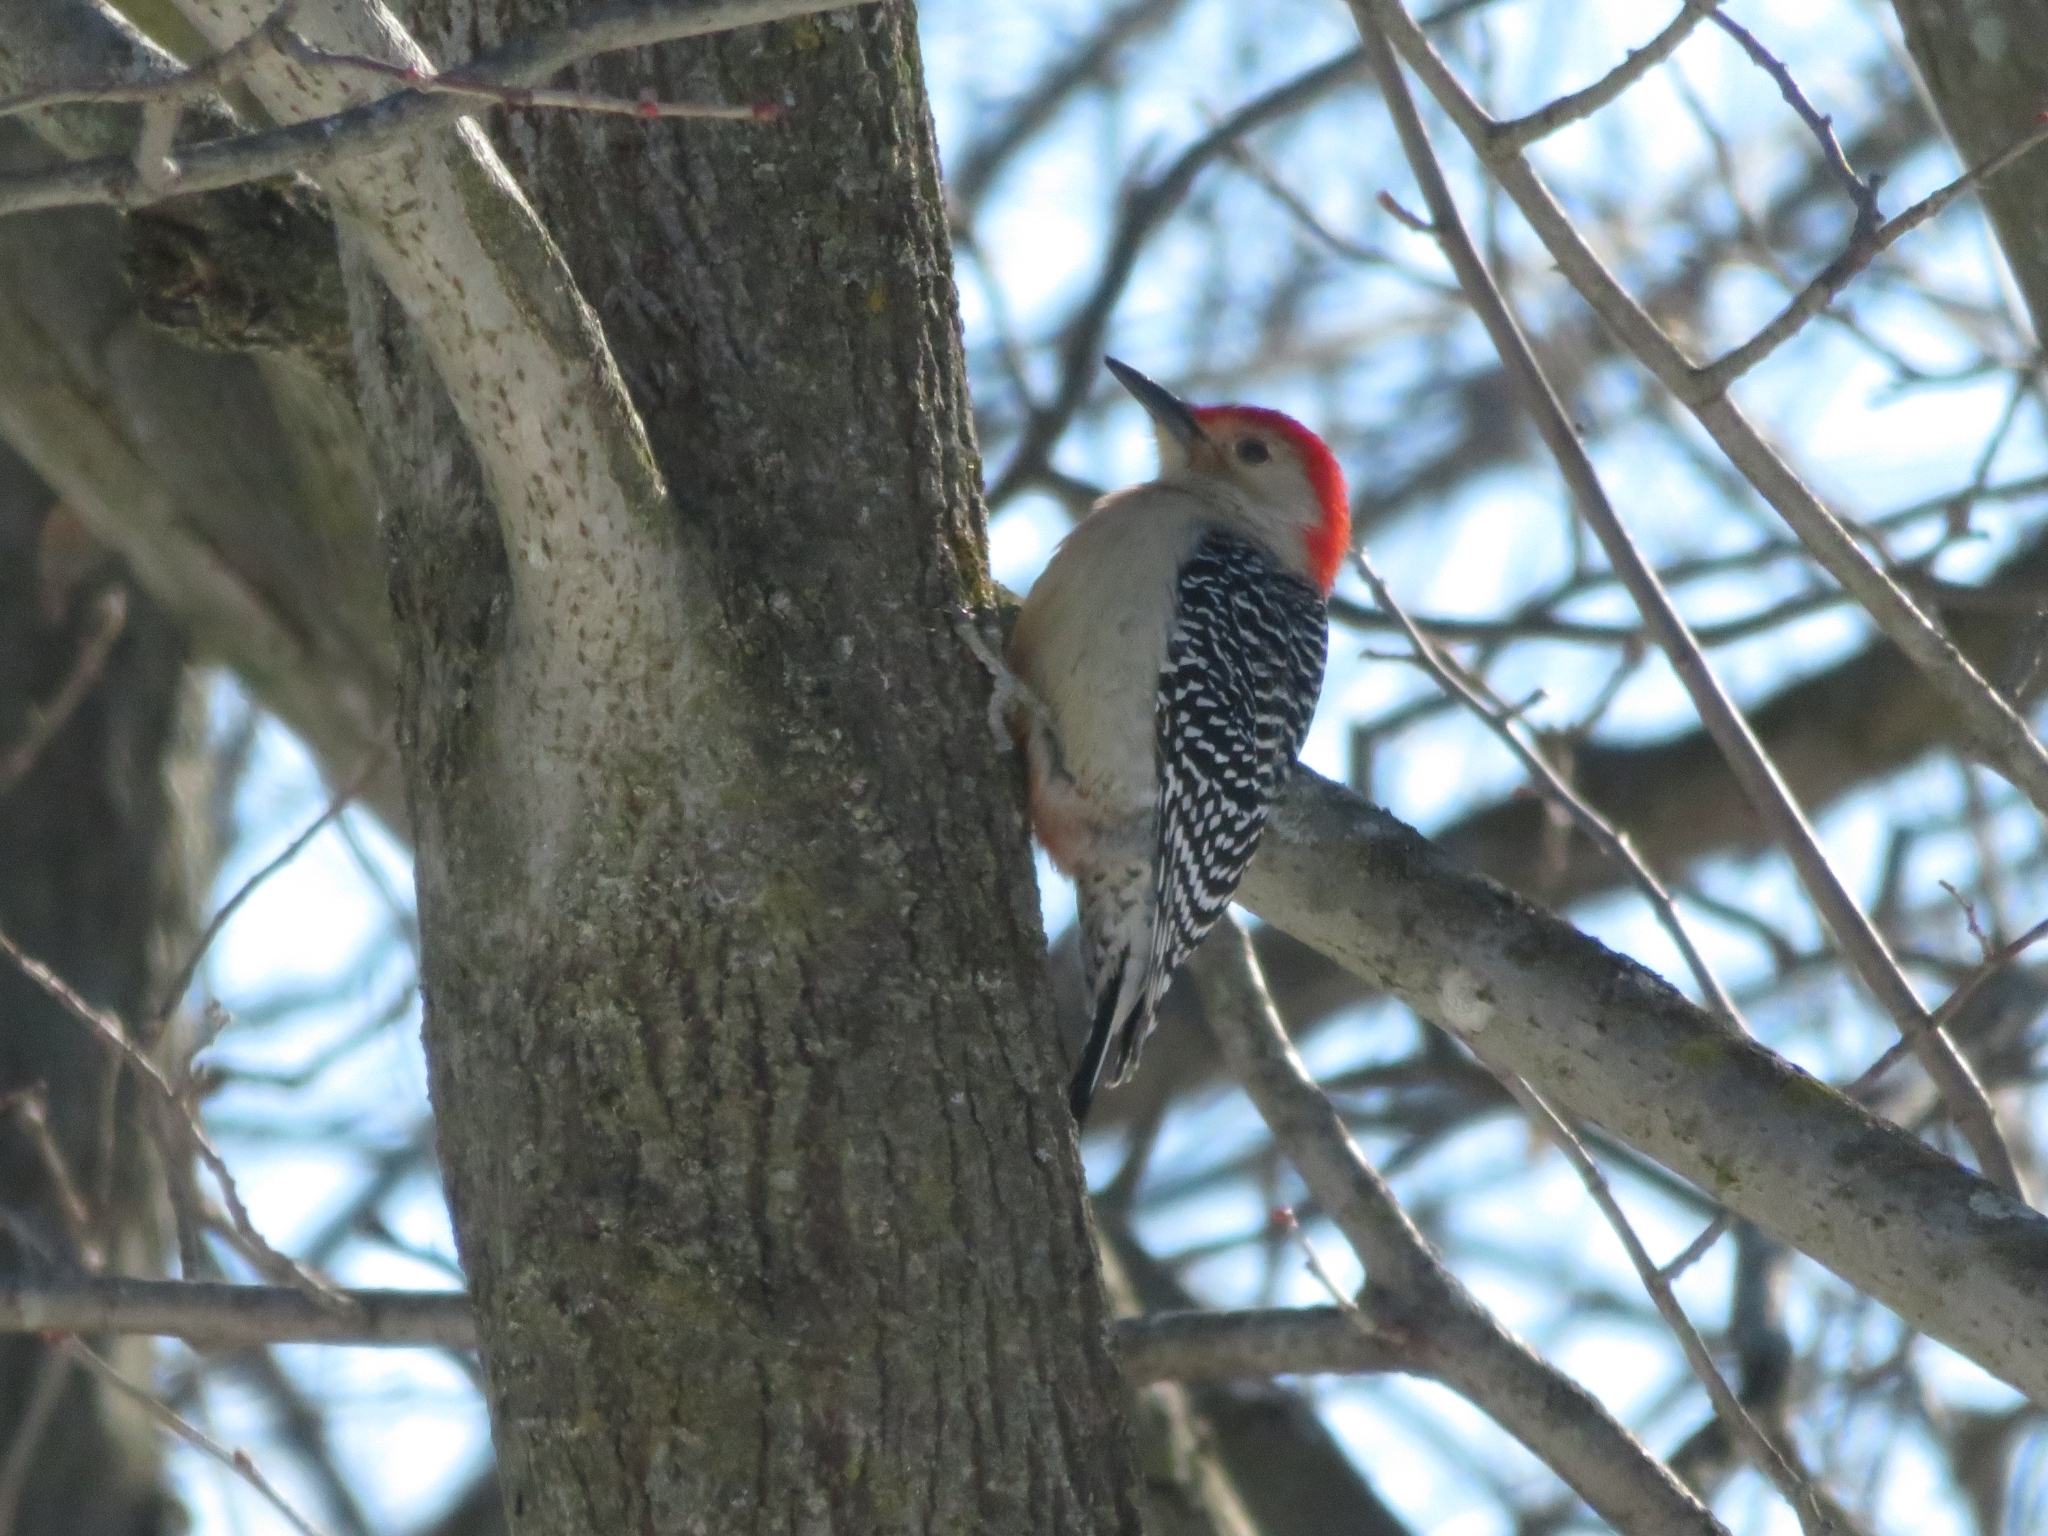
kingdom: Animalia
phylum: Chordata
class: Aves
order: Piciformes
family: Picidae
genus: Melanerpes
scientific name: Melanerpes carolinus
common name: Red-bellied woodpecker
